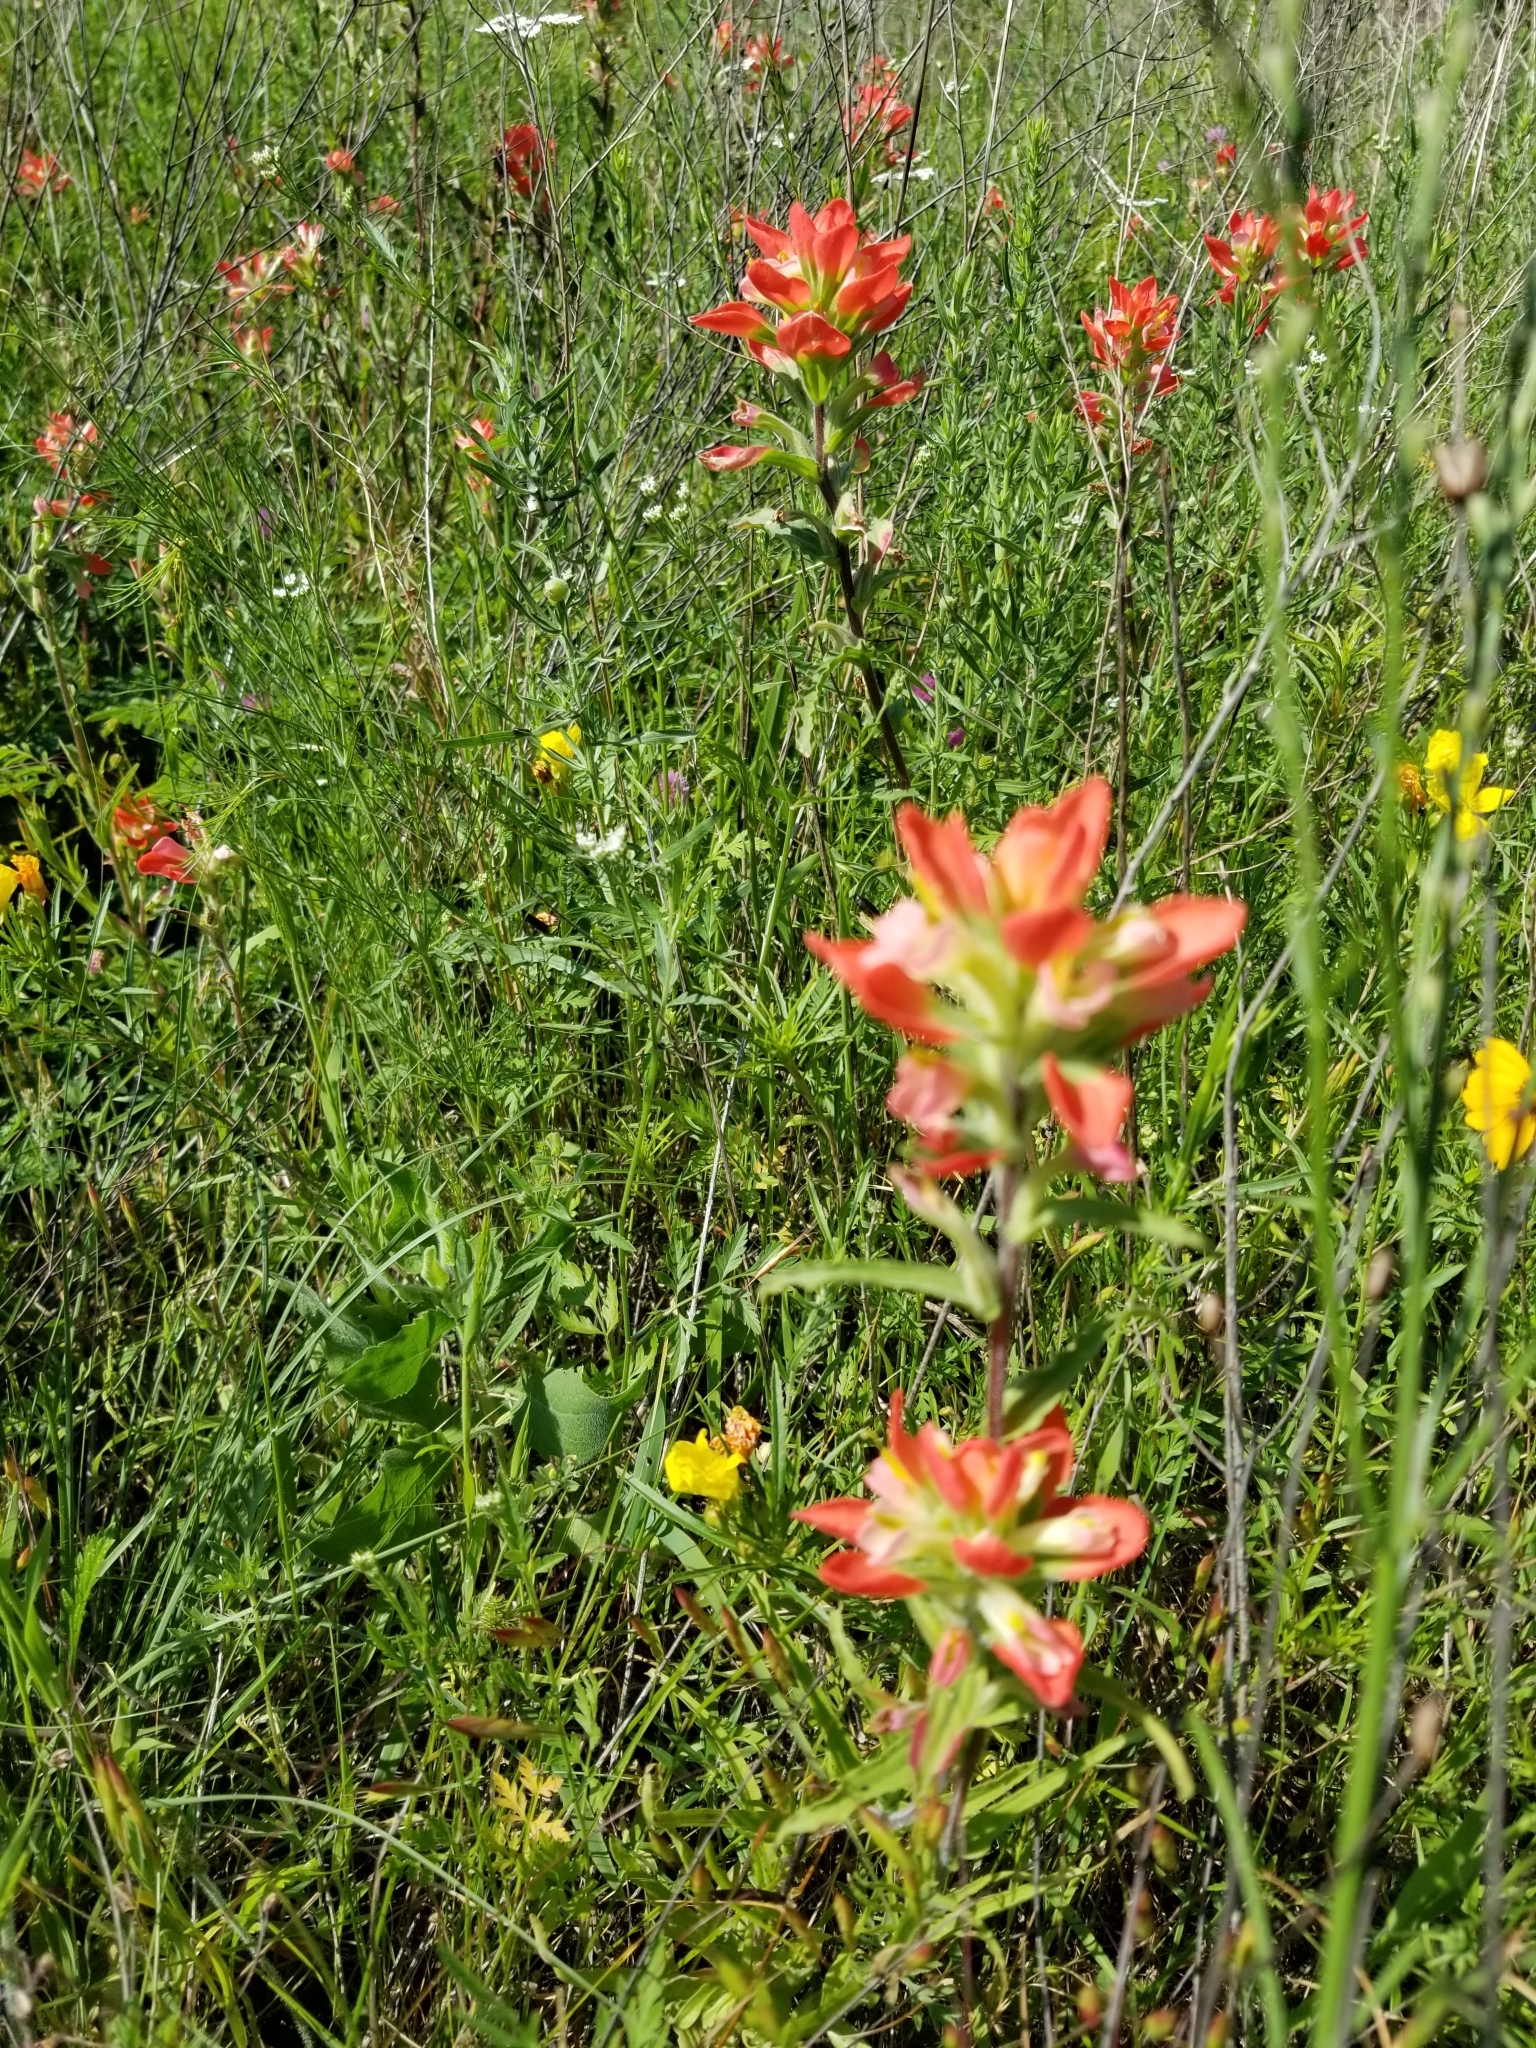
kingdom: Plantae
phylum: Tracheophyta
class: Magnoliopsida
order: Lamiales
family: Orobanchaceae
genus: Castilleja
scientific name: Castilleja indivisa
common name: Texas paintbrush
